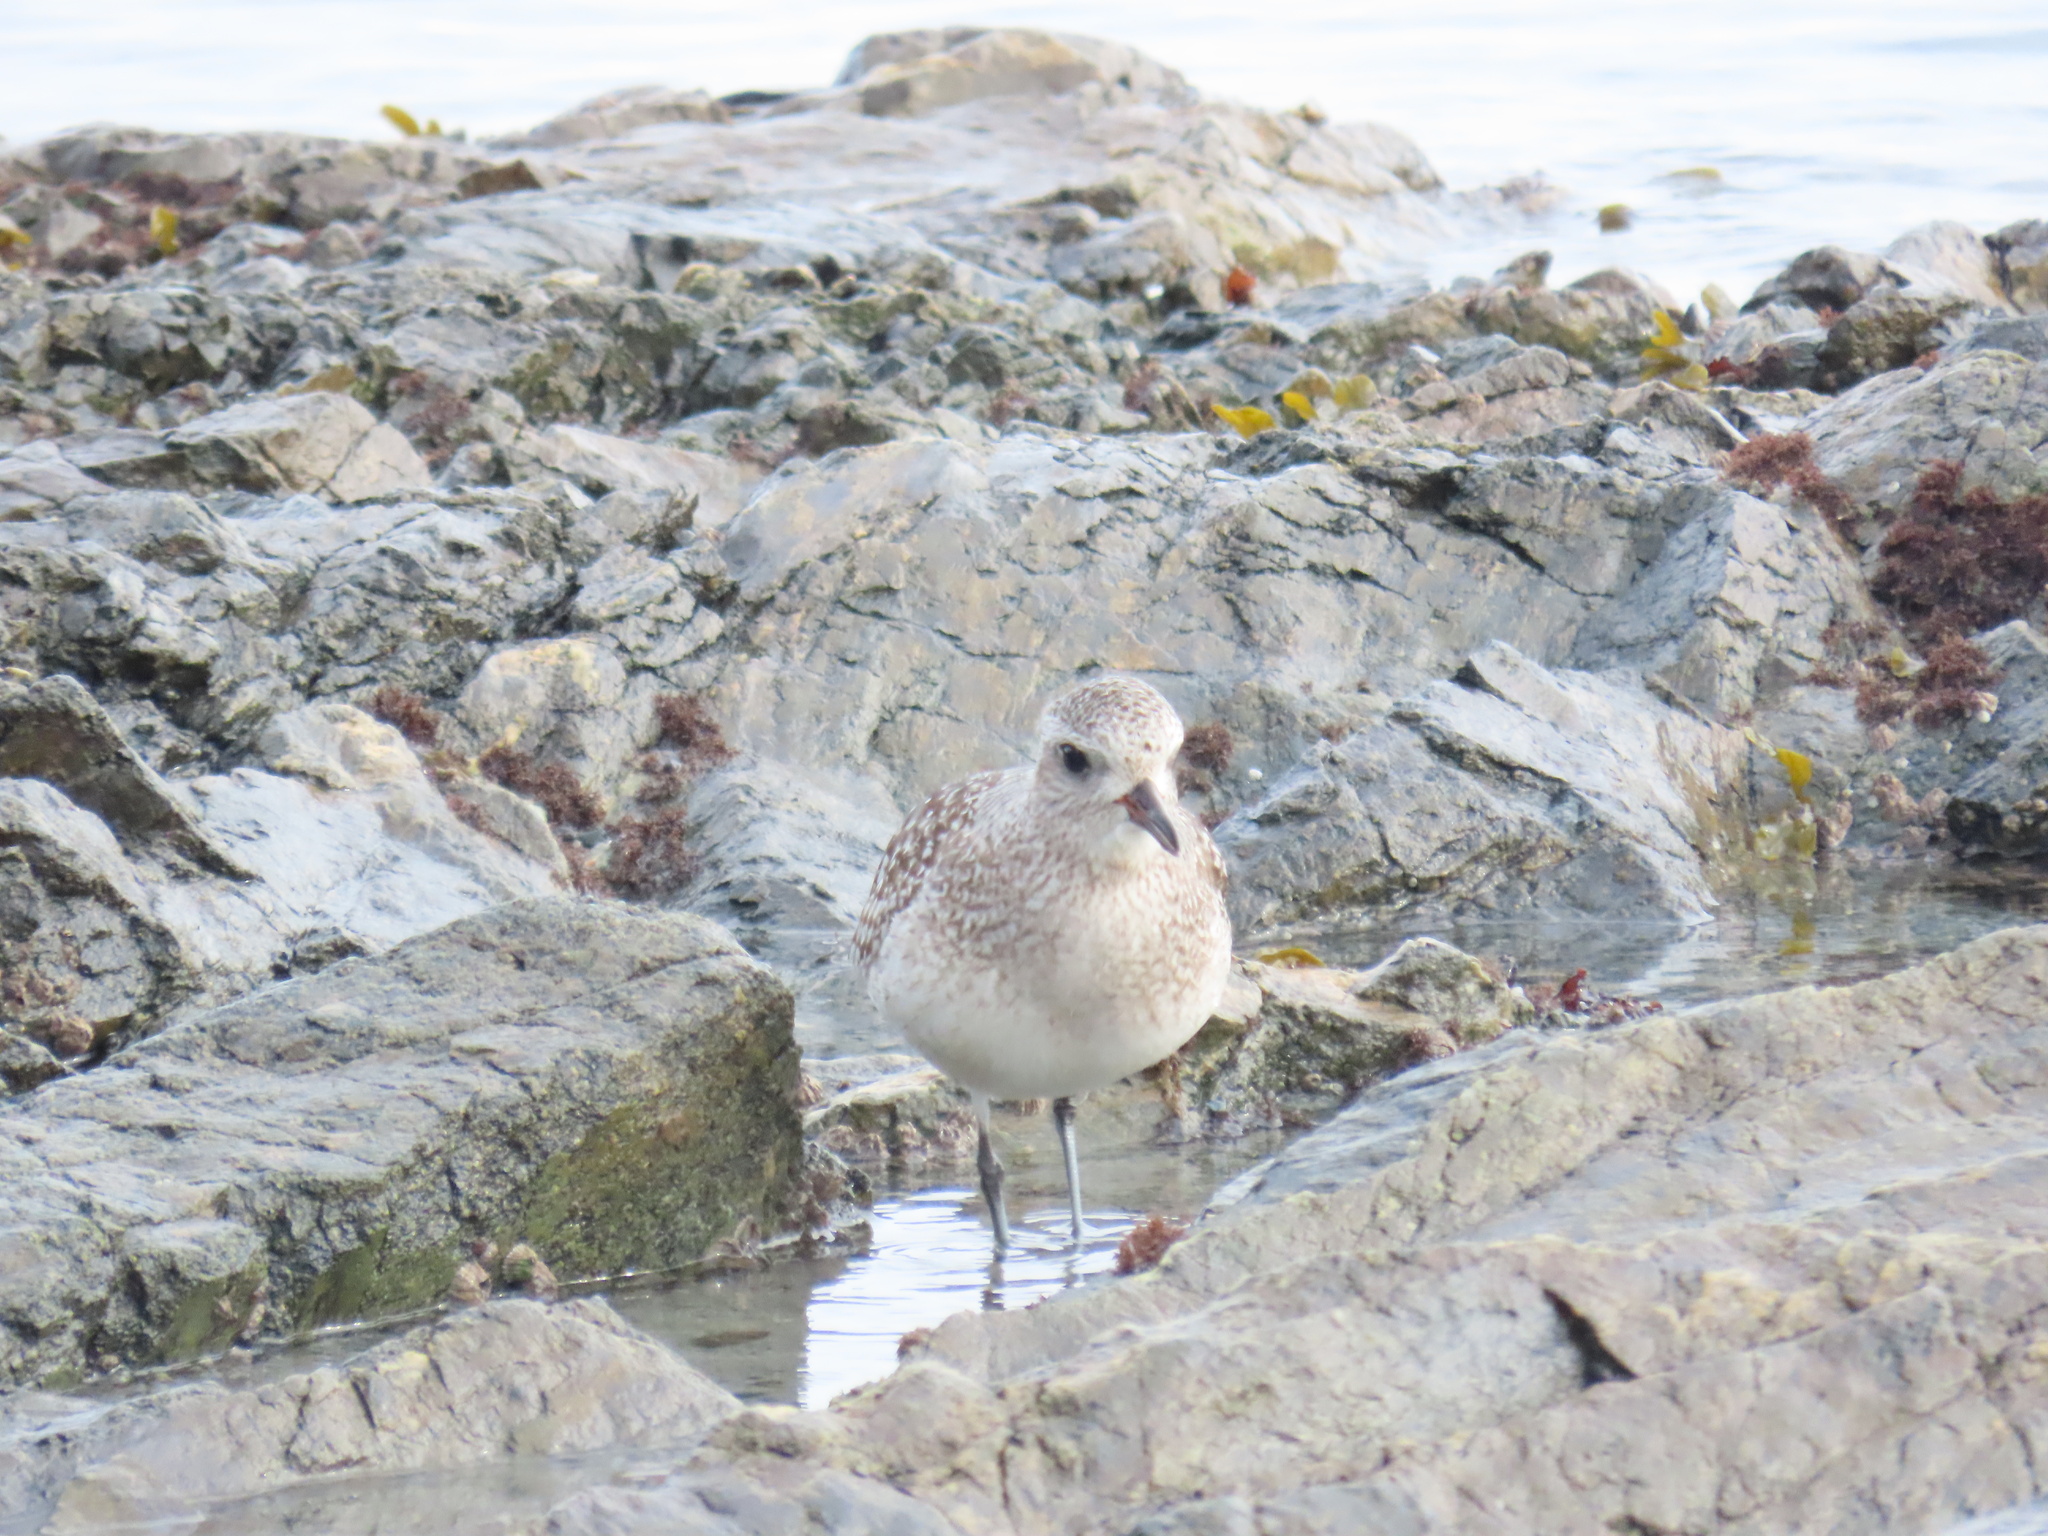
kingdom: Animalia
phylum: Chordata
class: Aves
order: Charadriiformes
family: Charadriidae
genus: Pluvialis
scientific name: Pluvialis squatarola
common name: Grey plover
